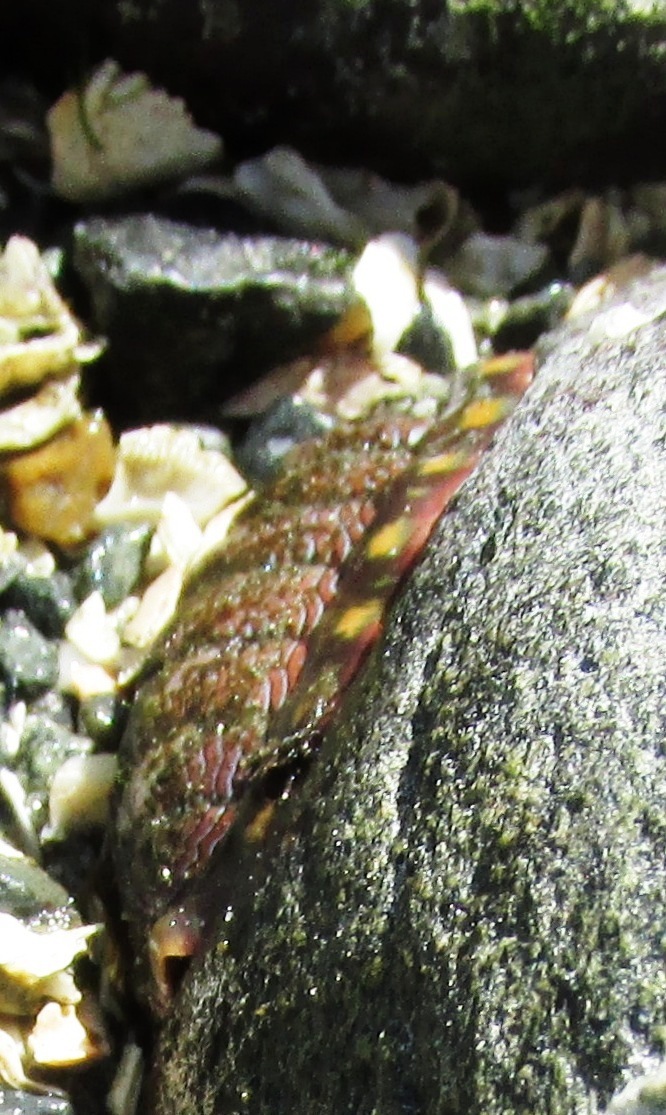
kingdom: Animalia
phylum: Mollusca
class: Polyplacophora
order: Chitonida
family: Tonicellidae
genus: Tonicella
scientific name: Tonicella lokii
